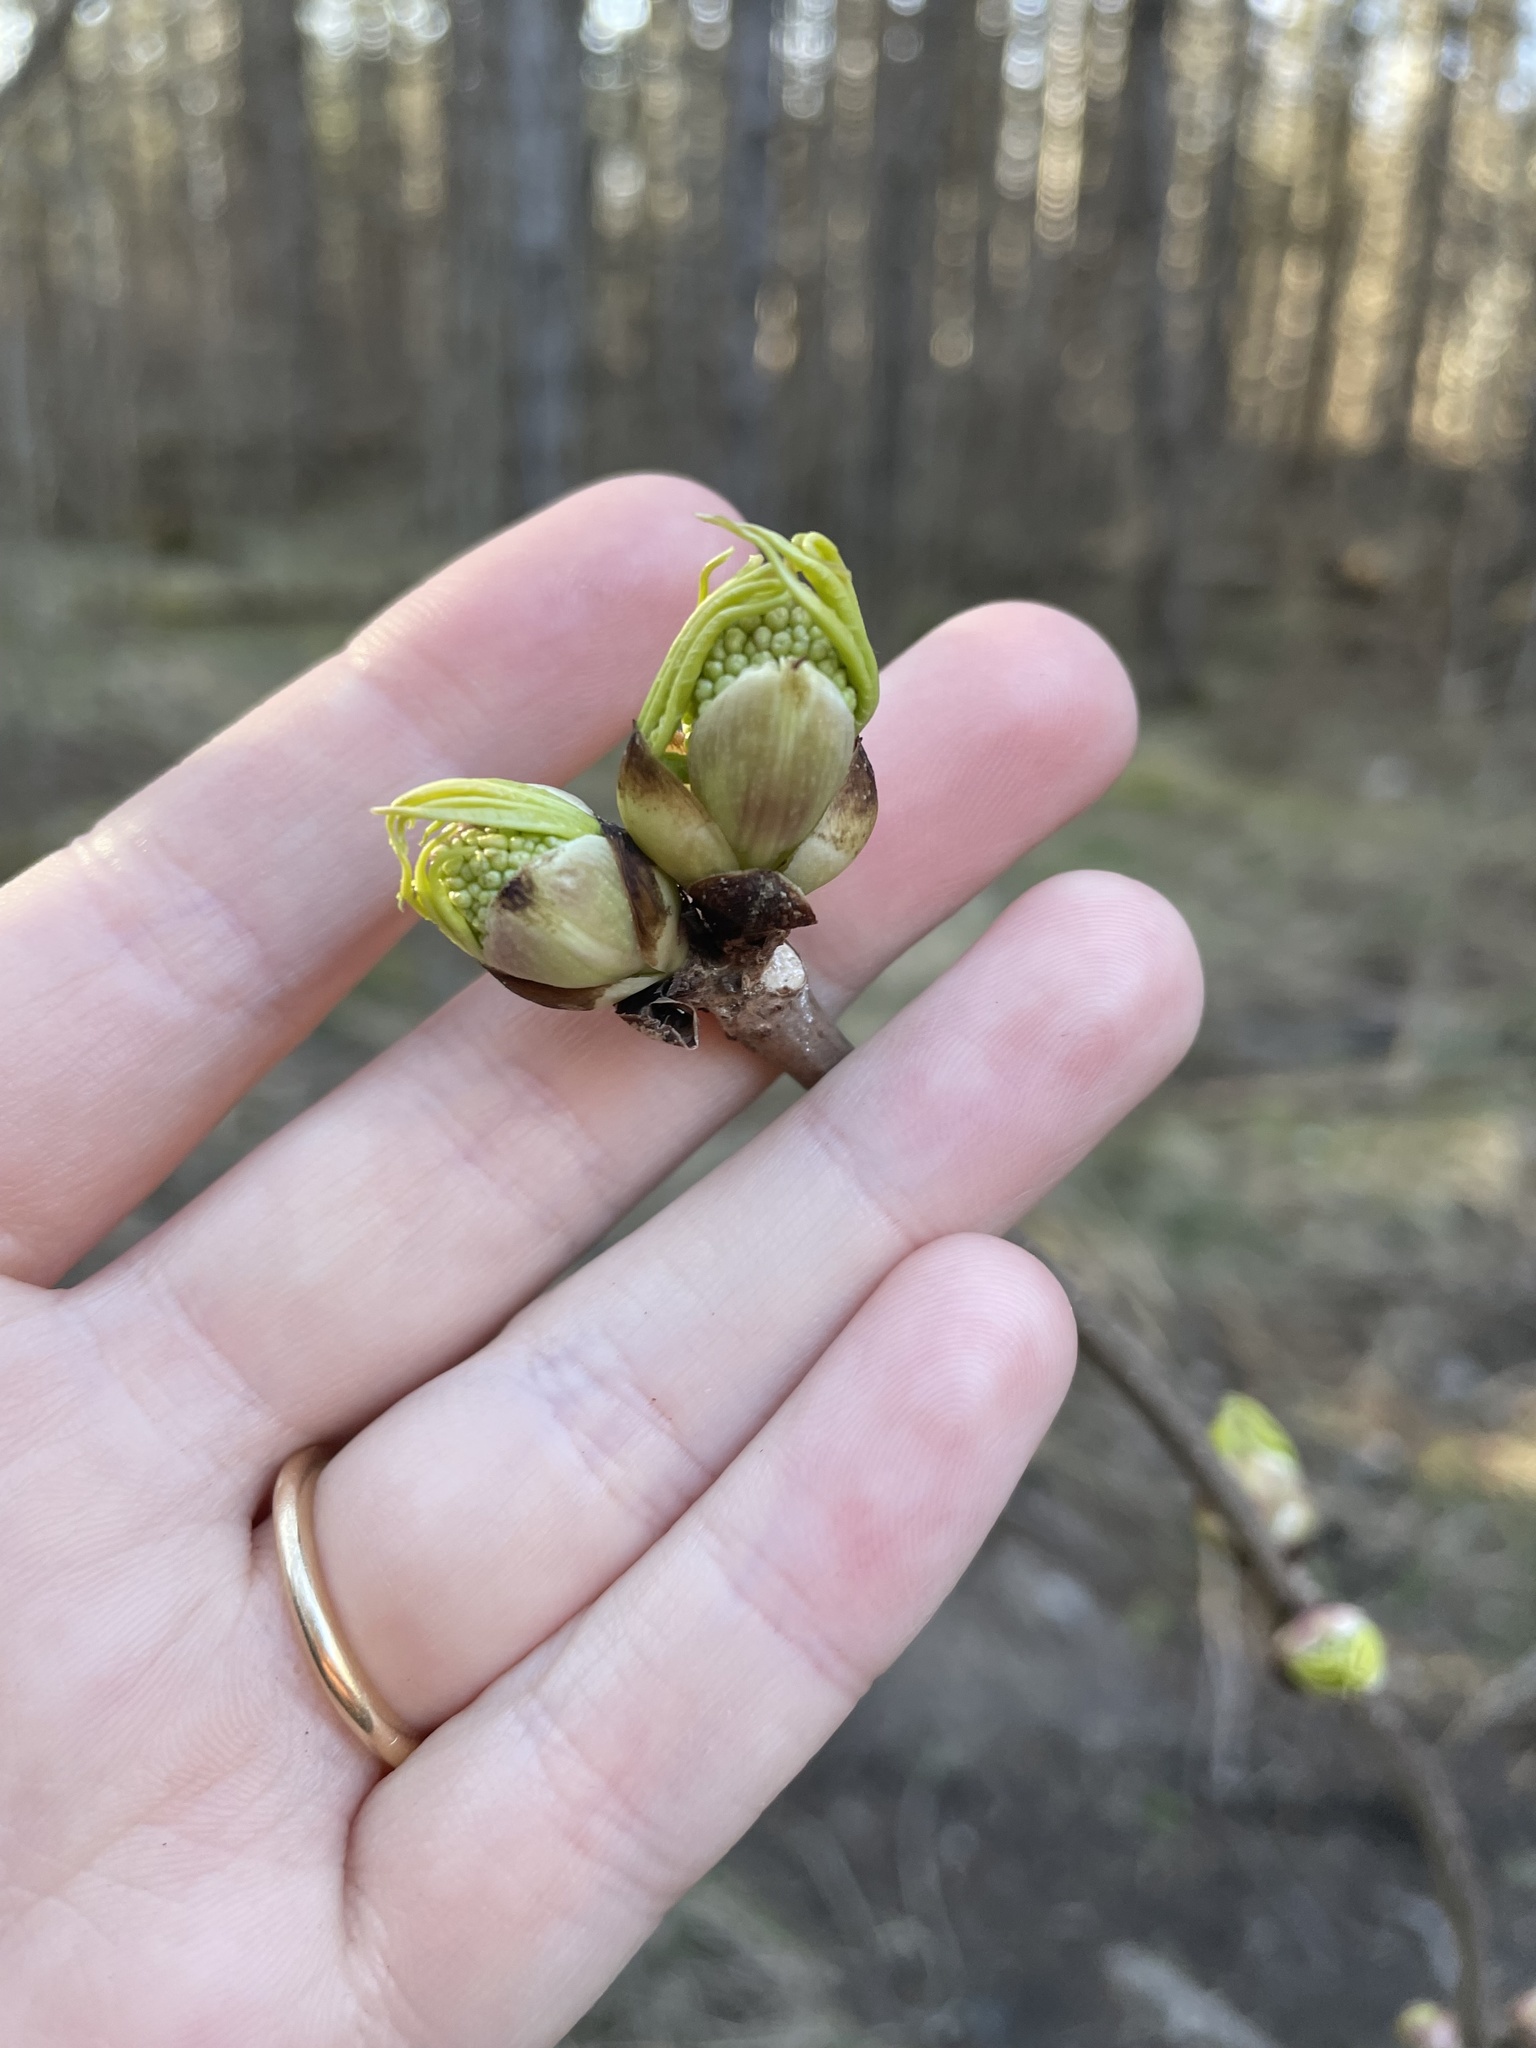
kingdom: Plantae
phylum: Tracheophyta
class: Magnoliopsida
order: Dipsacales
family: Viburnaceae
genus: Sambucus
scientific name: Sambucus racemosa
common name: Red-berried elder
